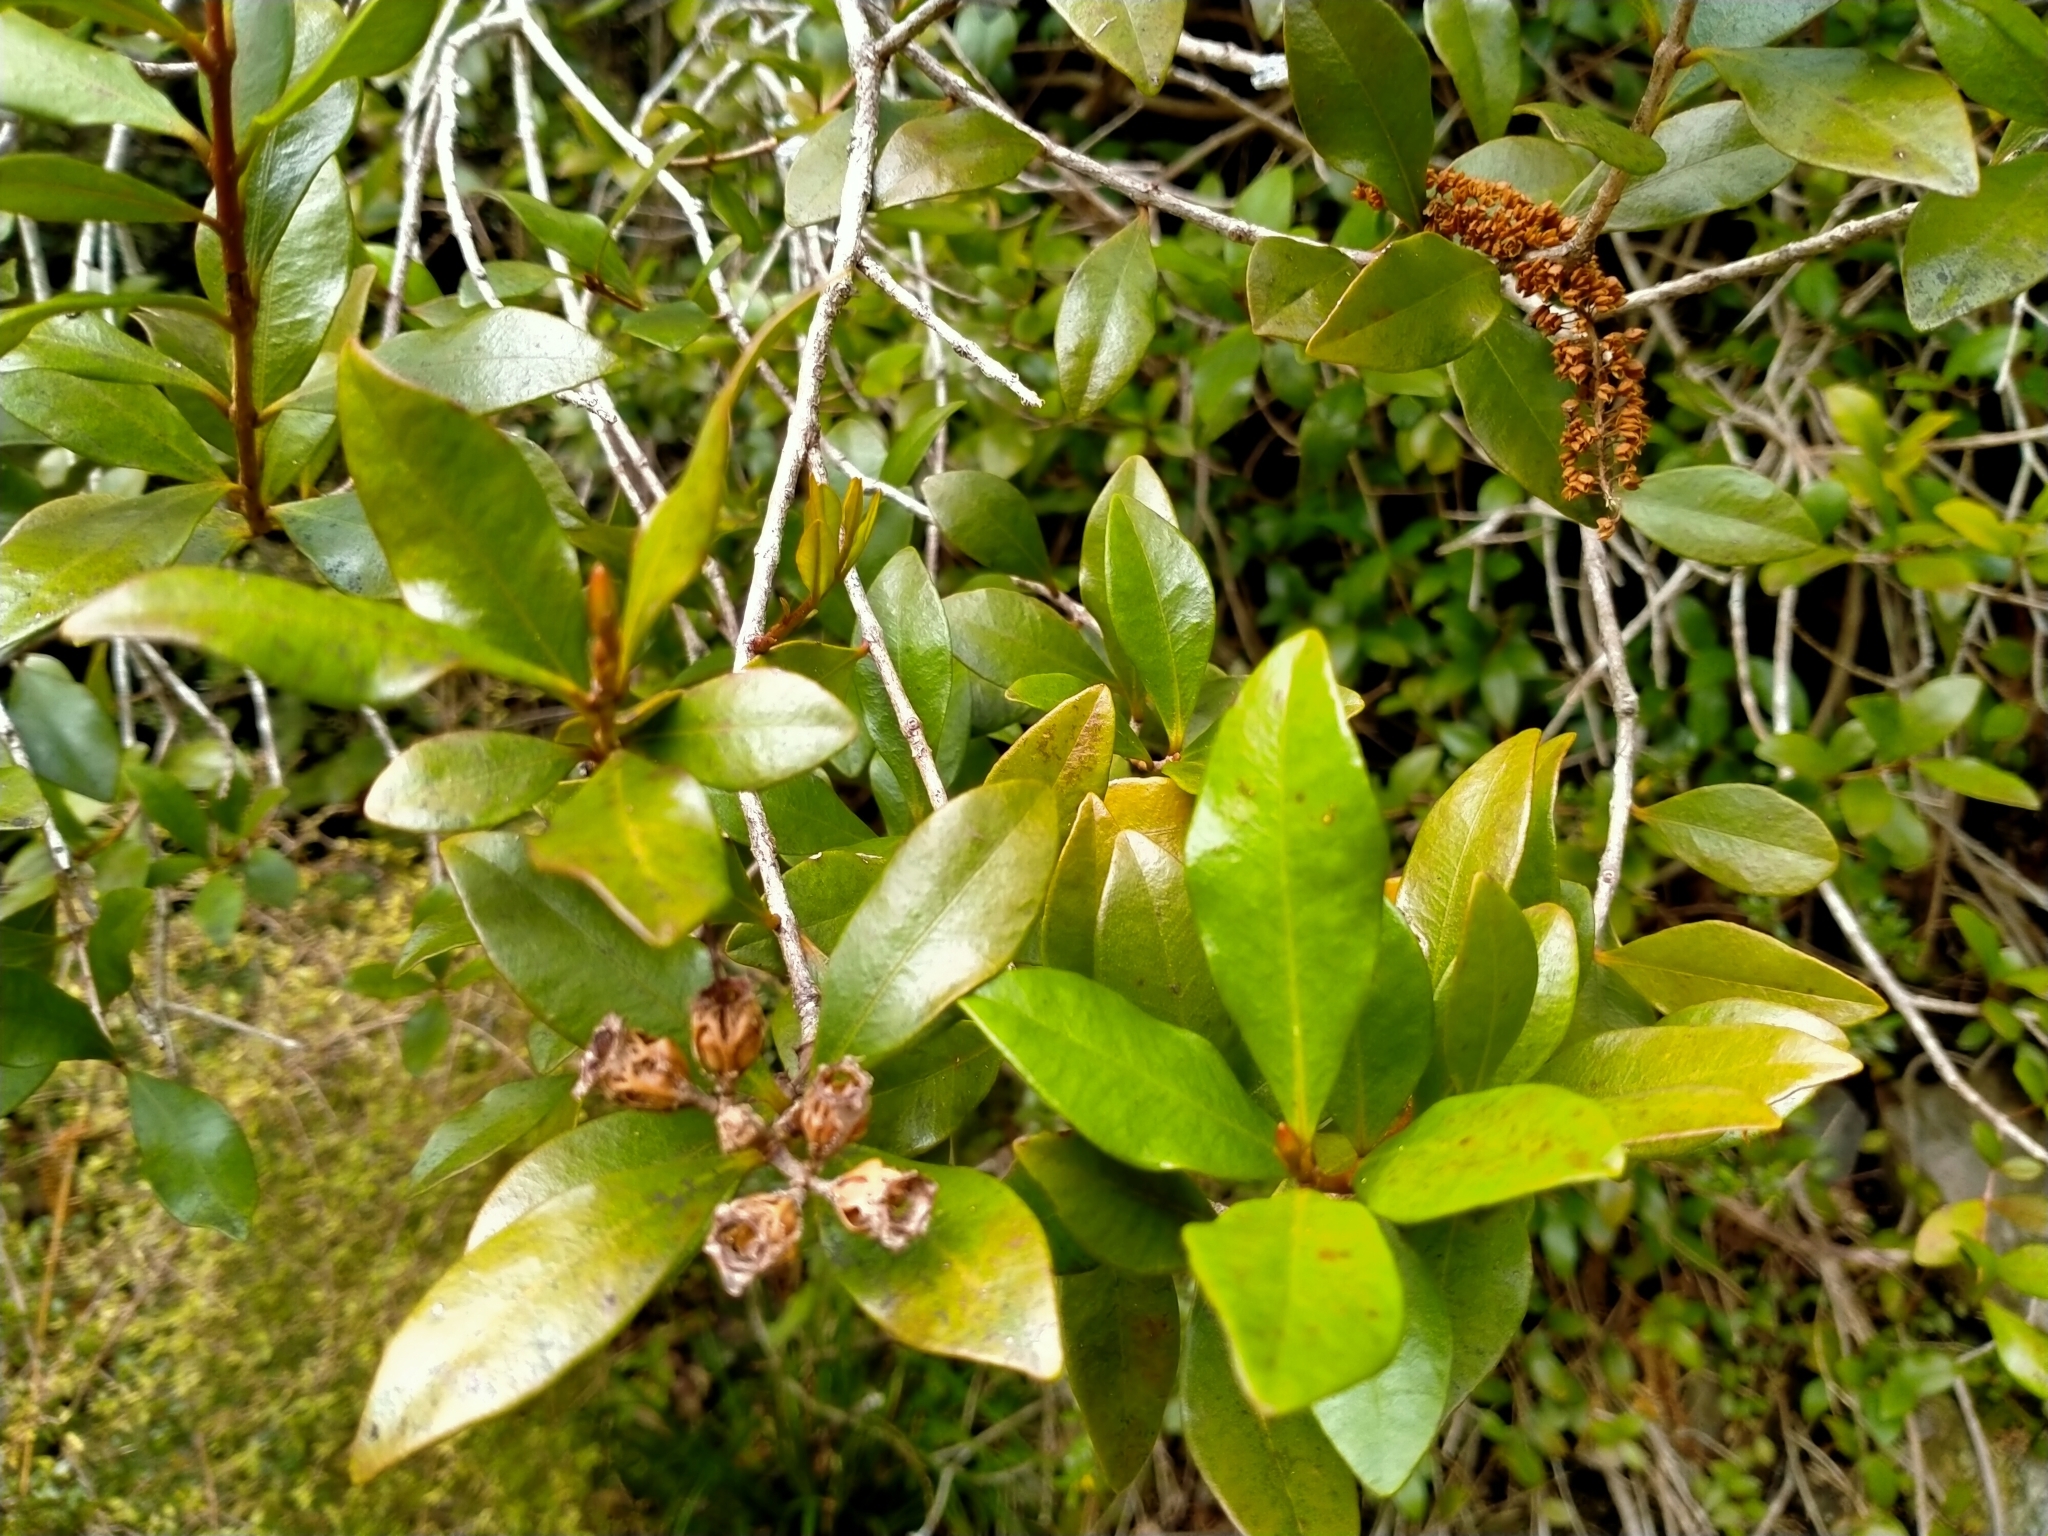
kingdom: Plantae
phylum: Tracheophyta
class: Magnoliopsida
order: Myrtales
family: Myrtaceae
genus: Metrosideros
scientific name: Metrosideros fulgens
